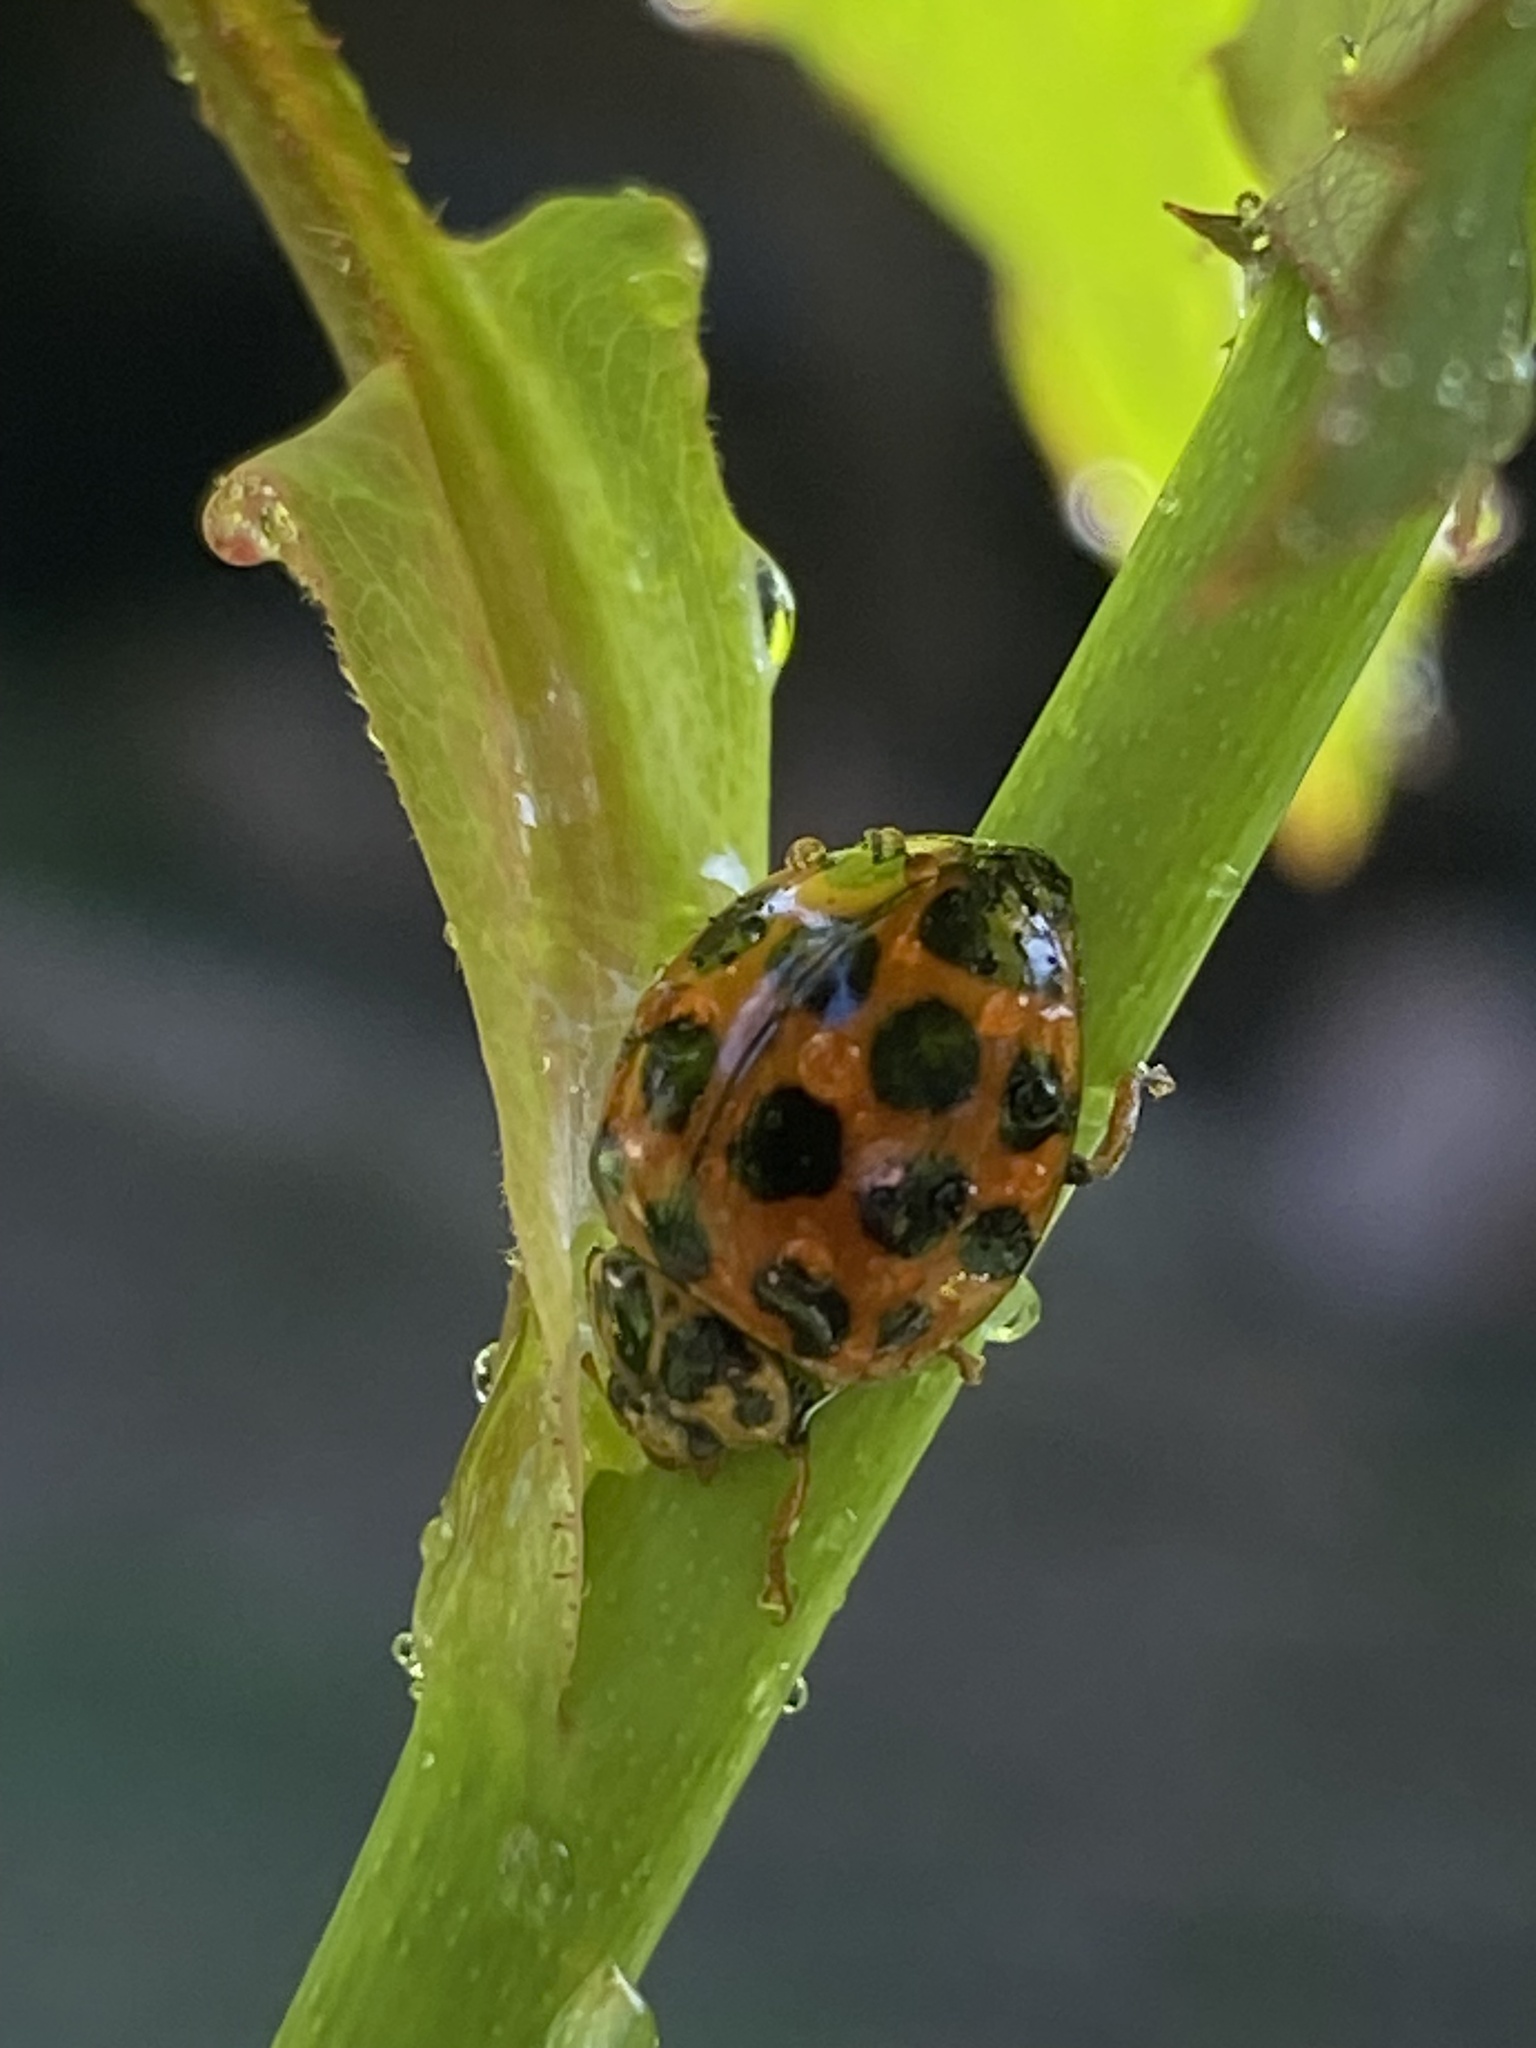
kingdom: Animalia
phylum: Arthropoda
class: Insecta
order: Coleoptera
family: Coccinellidae
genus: Harmonia
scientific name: Harmonia conformis
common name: Common spotted ladybird beetle
